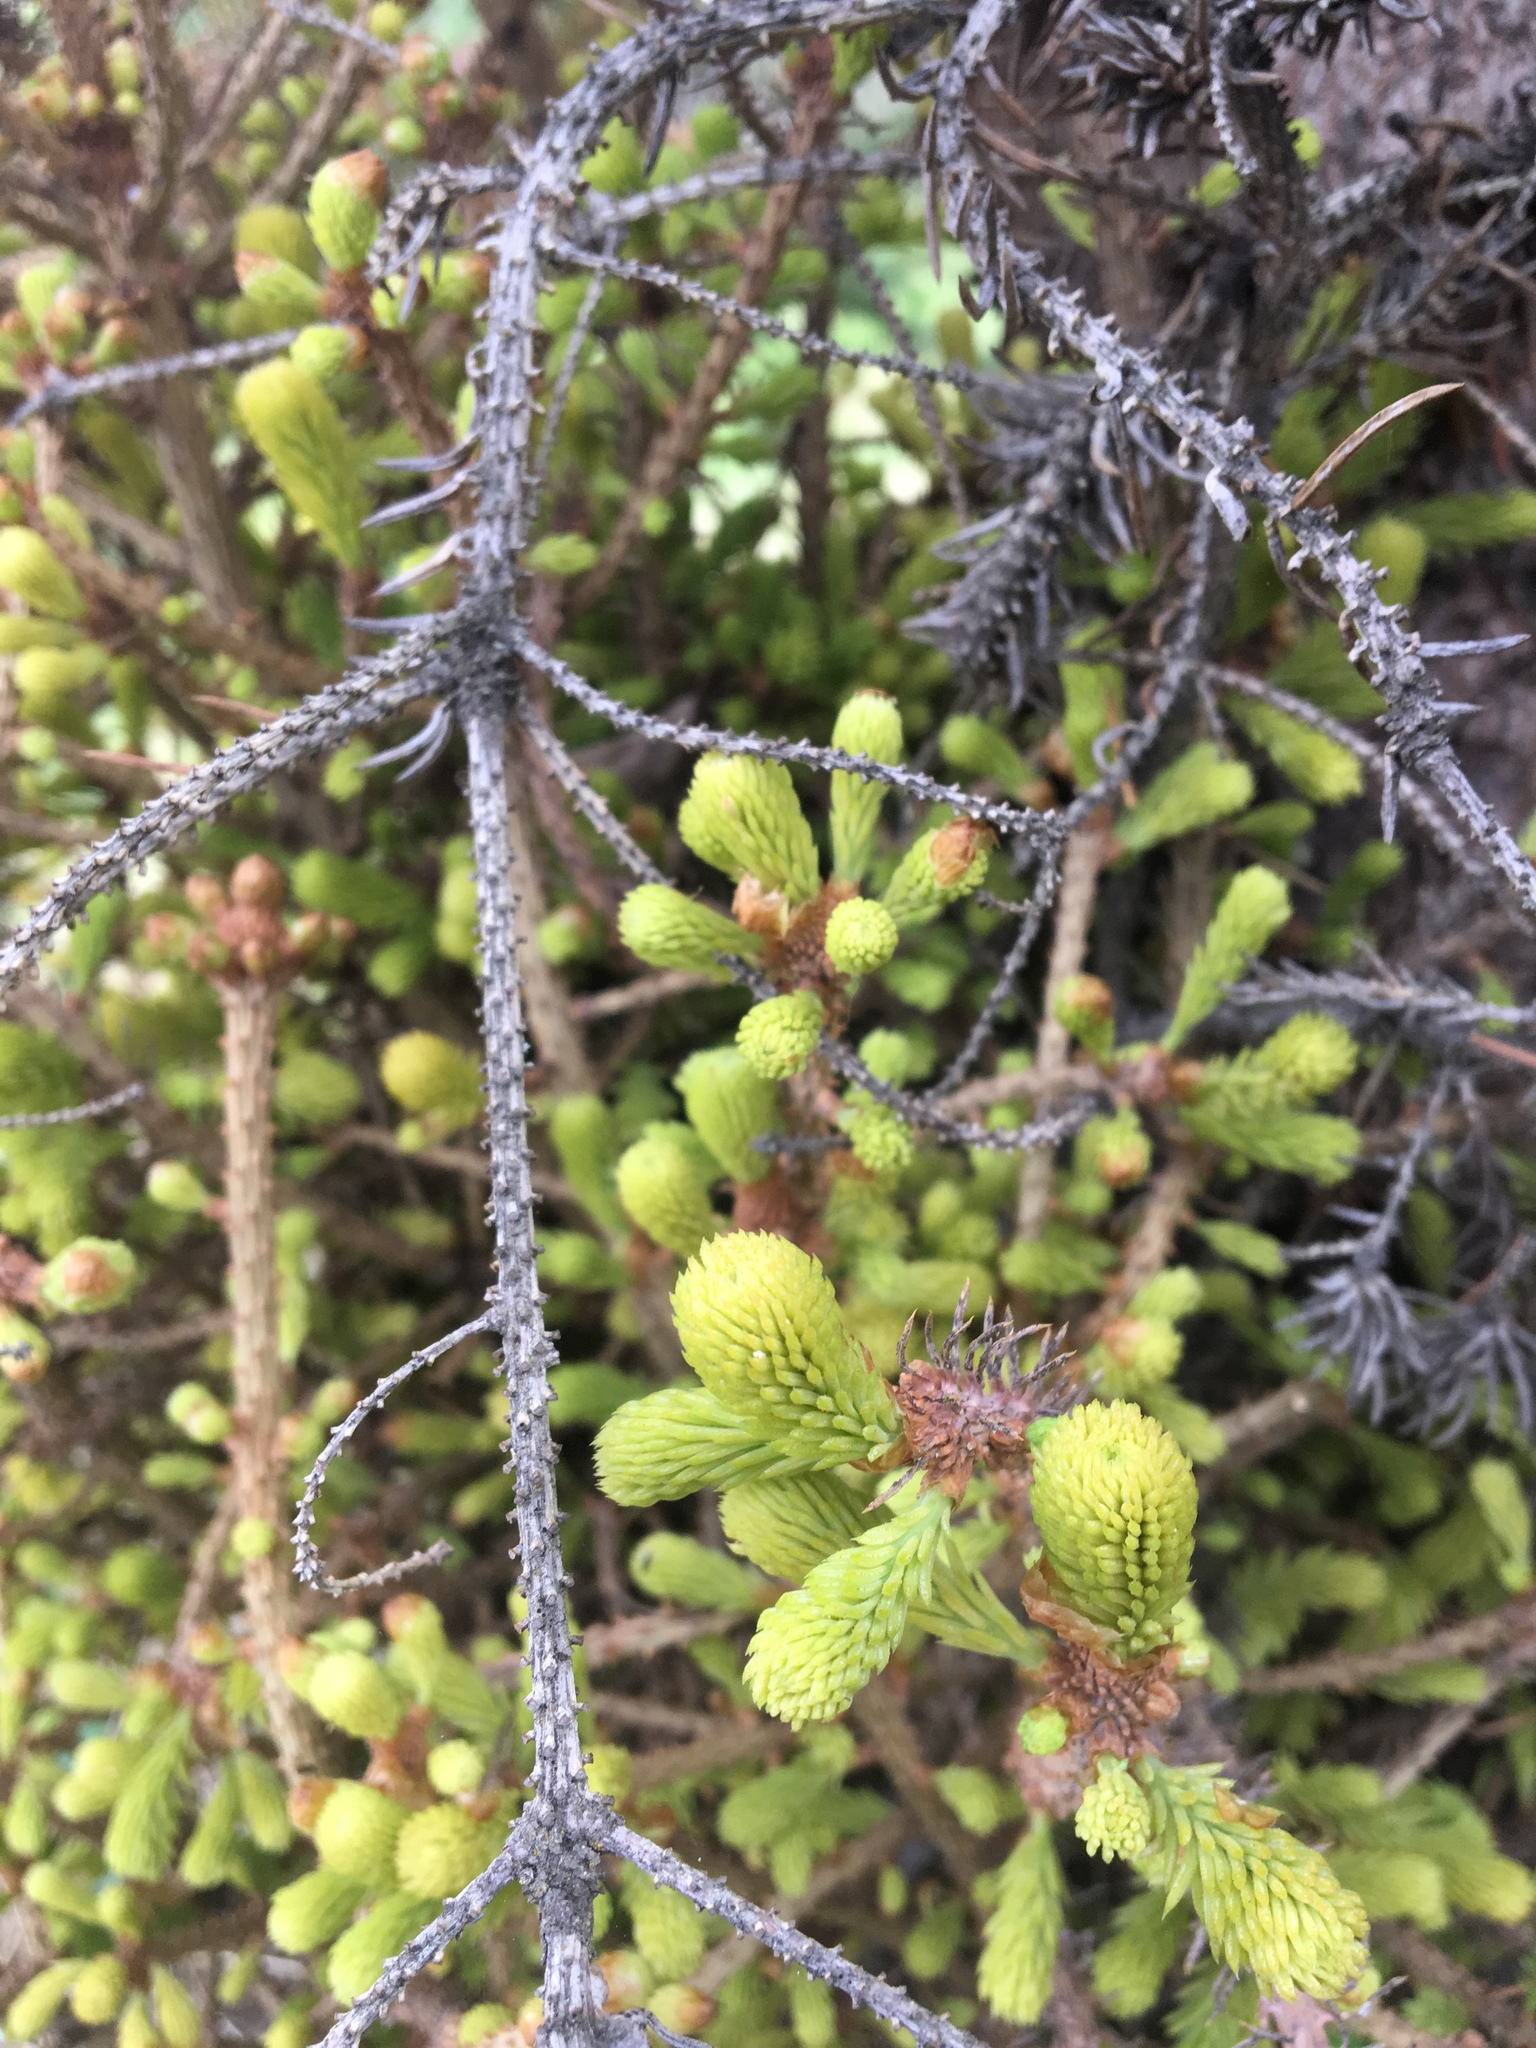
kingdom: Fungi
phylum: Basidiomycota
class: Pucciniomycetes
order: Pucciniales
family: Coleosporiaceae
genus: Chrysomyxa
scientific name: Chrysomyxa arctostaphyli
